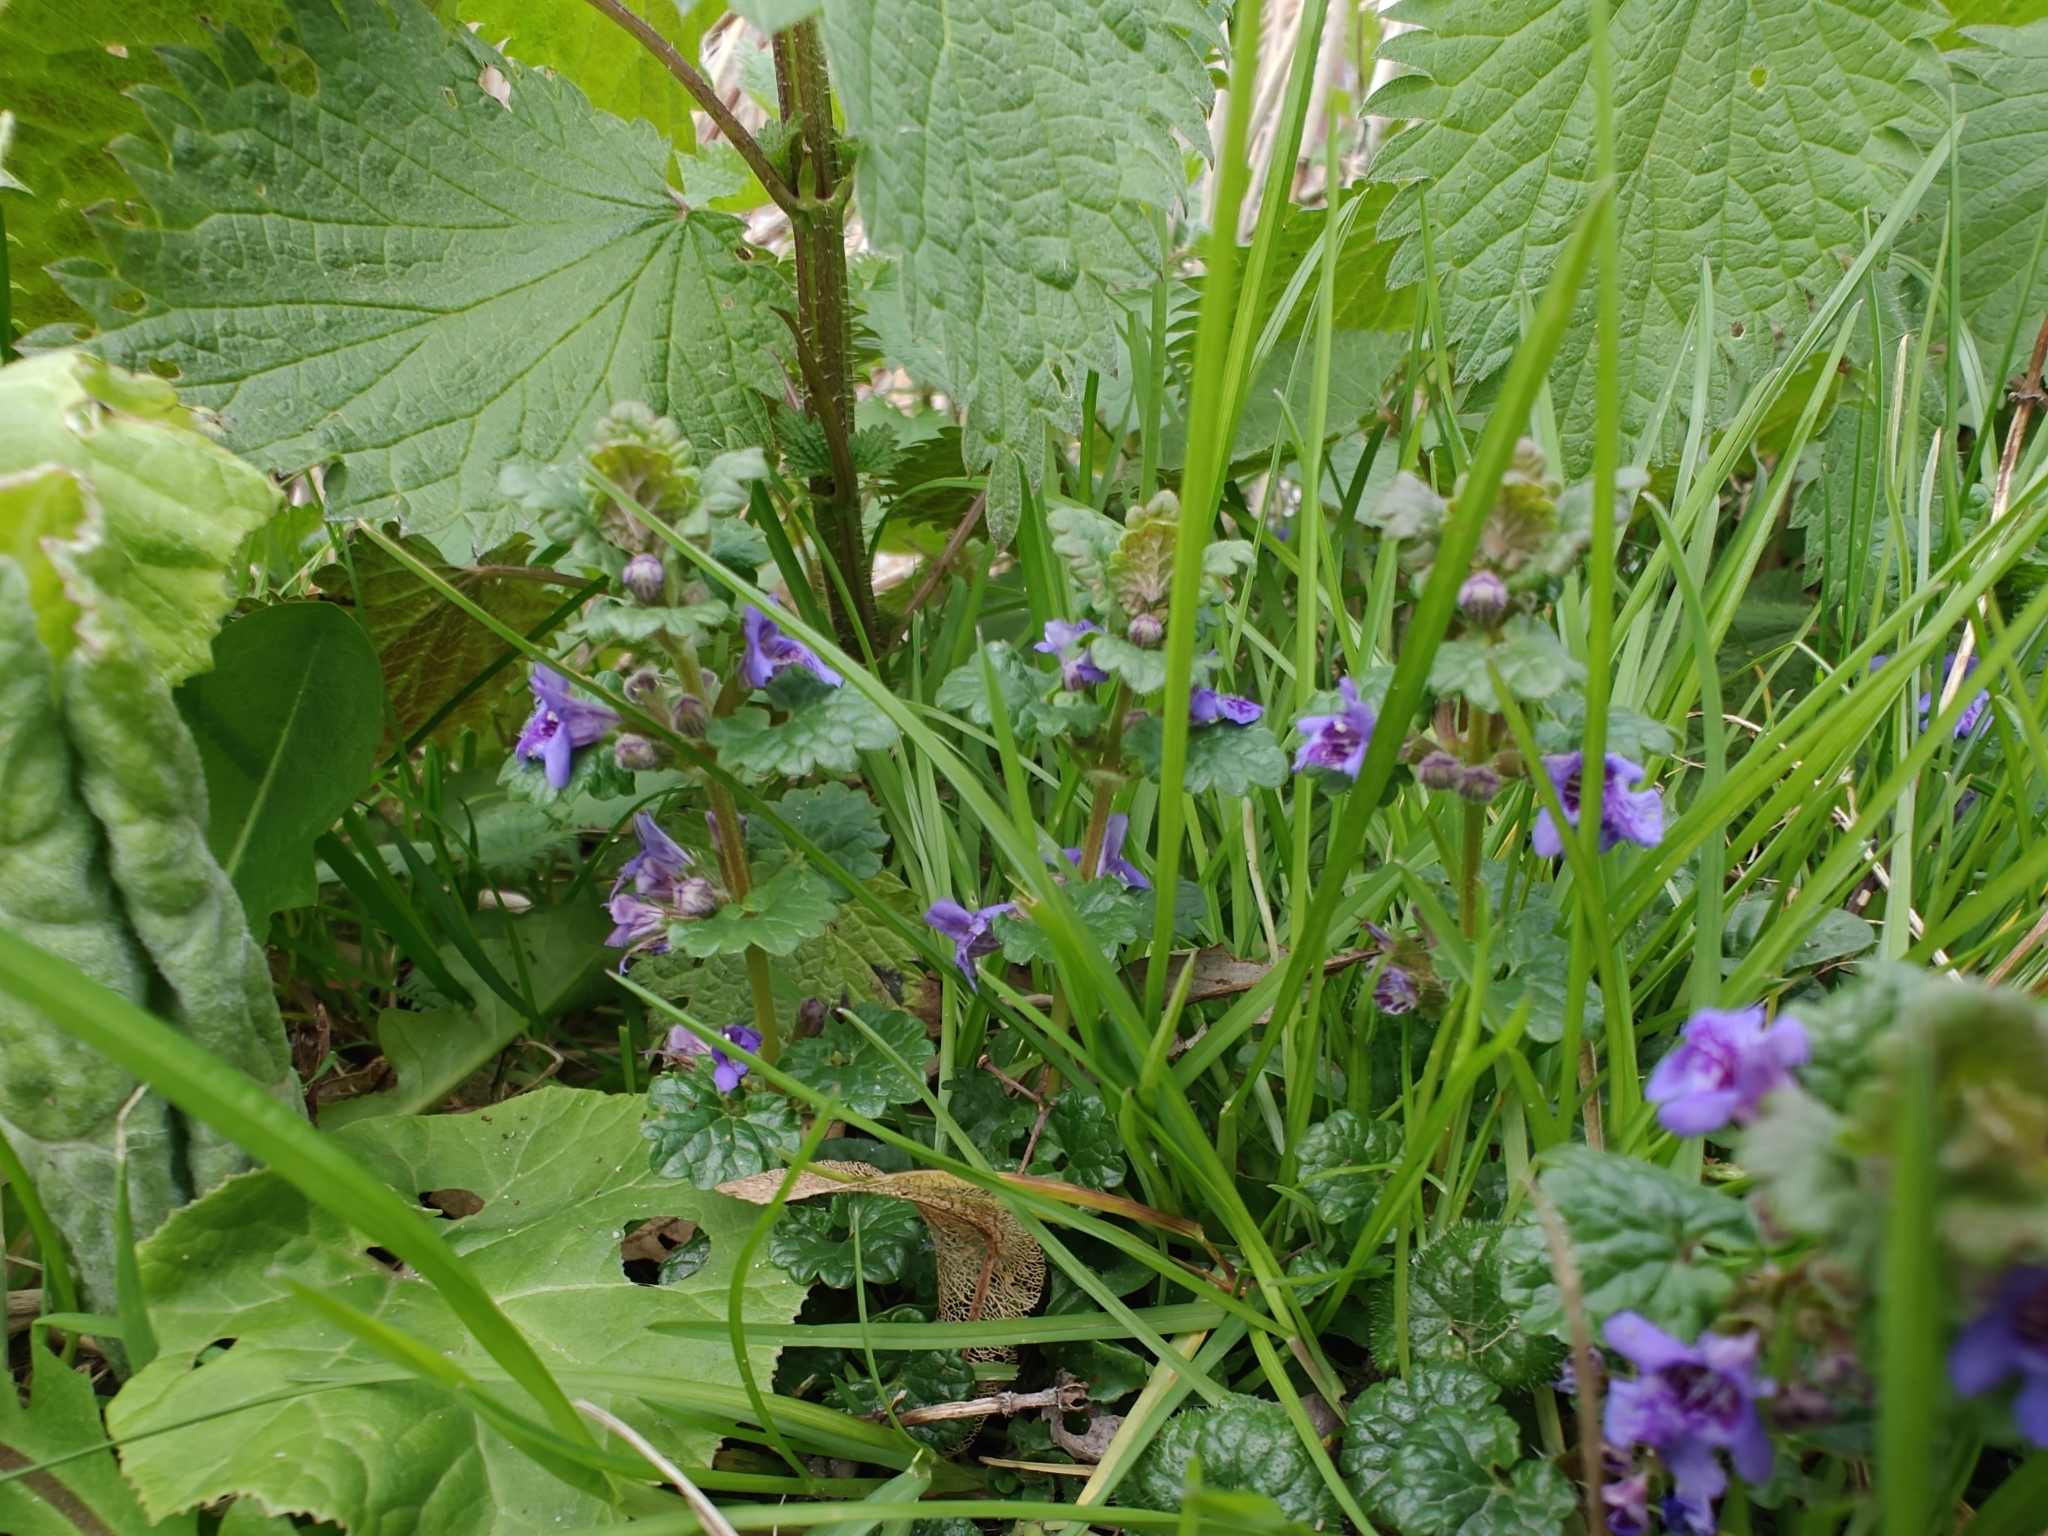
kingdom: Plantae
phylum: Tracheophyta
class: Magnoliopsida
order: Lamiales
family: Lamiaceae
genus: Glechoma
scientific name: Glechoma hederacea
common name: Ground ivy
